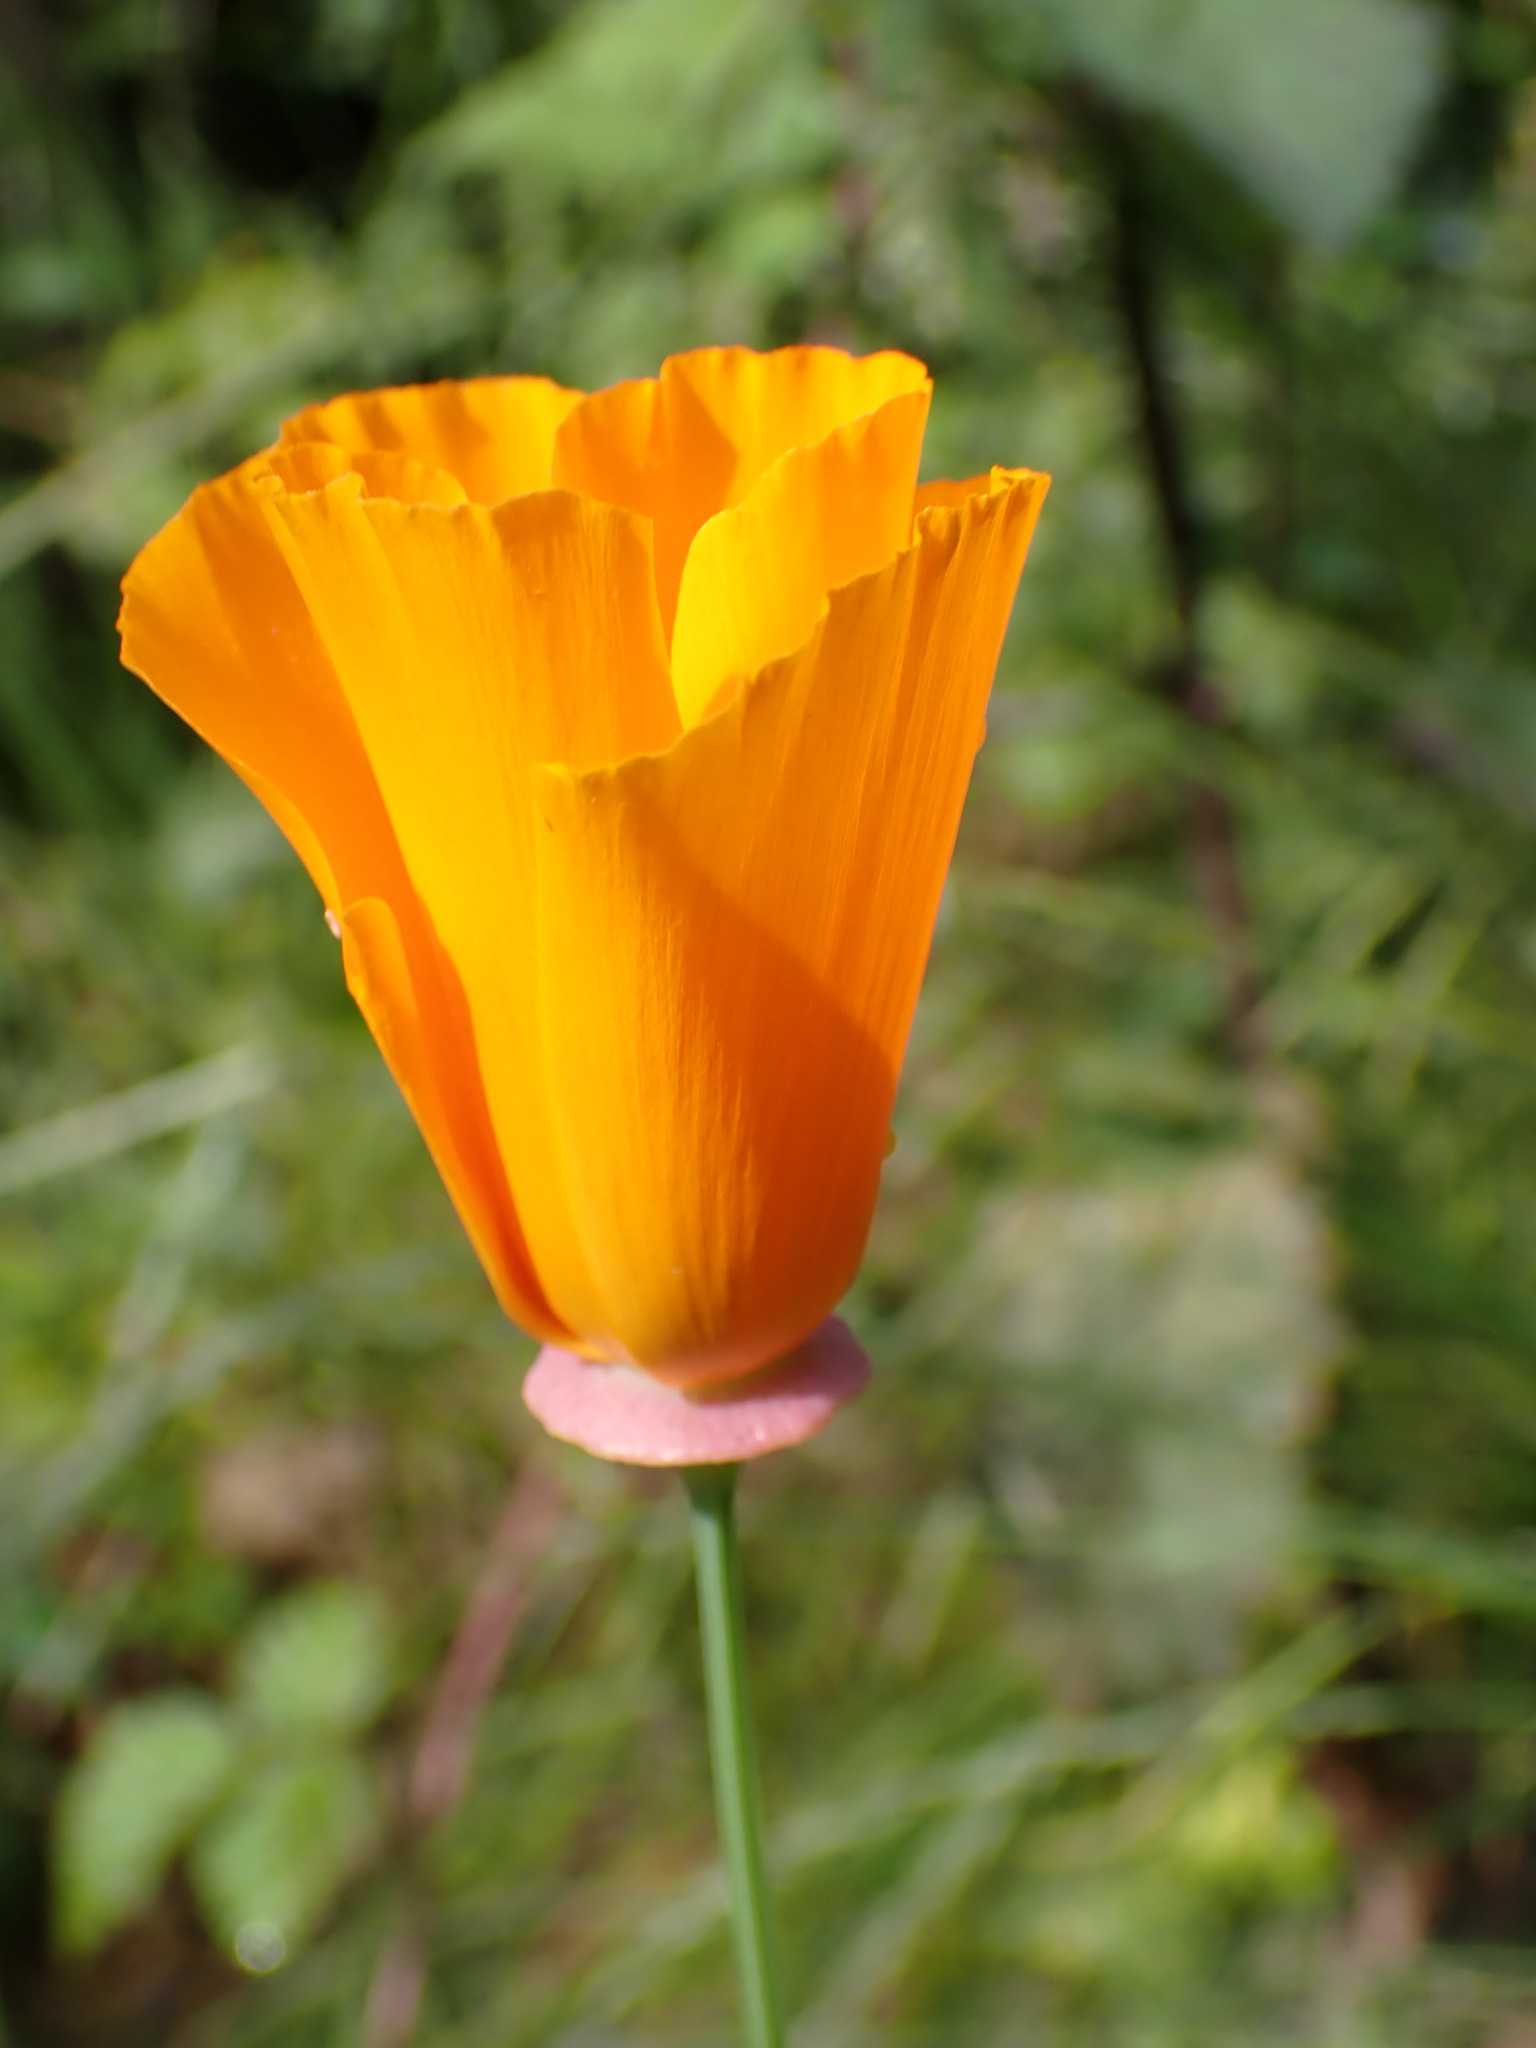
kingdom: Plantae
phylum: Tracheophyta
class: Magnoliopsida
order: Ranunculales
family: Papaveraceae
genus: Eschscholzia
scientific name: Eschscholzia californica
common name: California poppy
